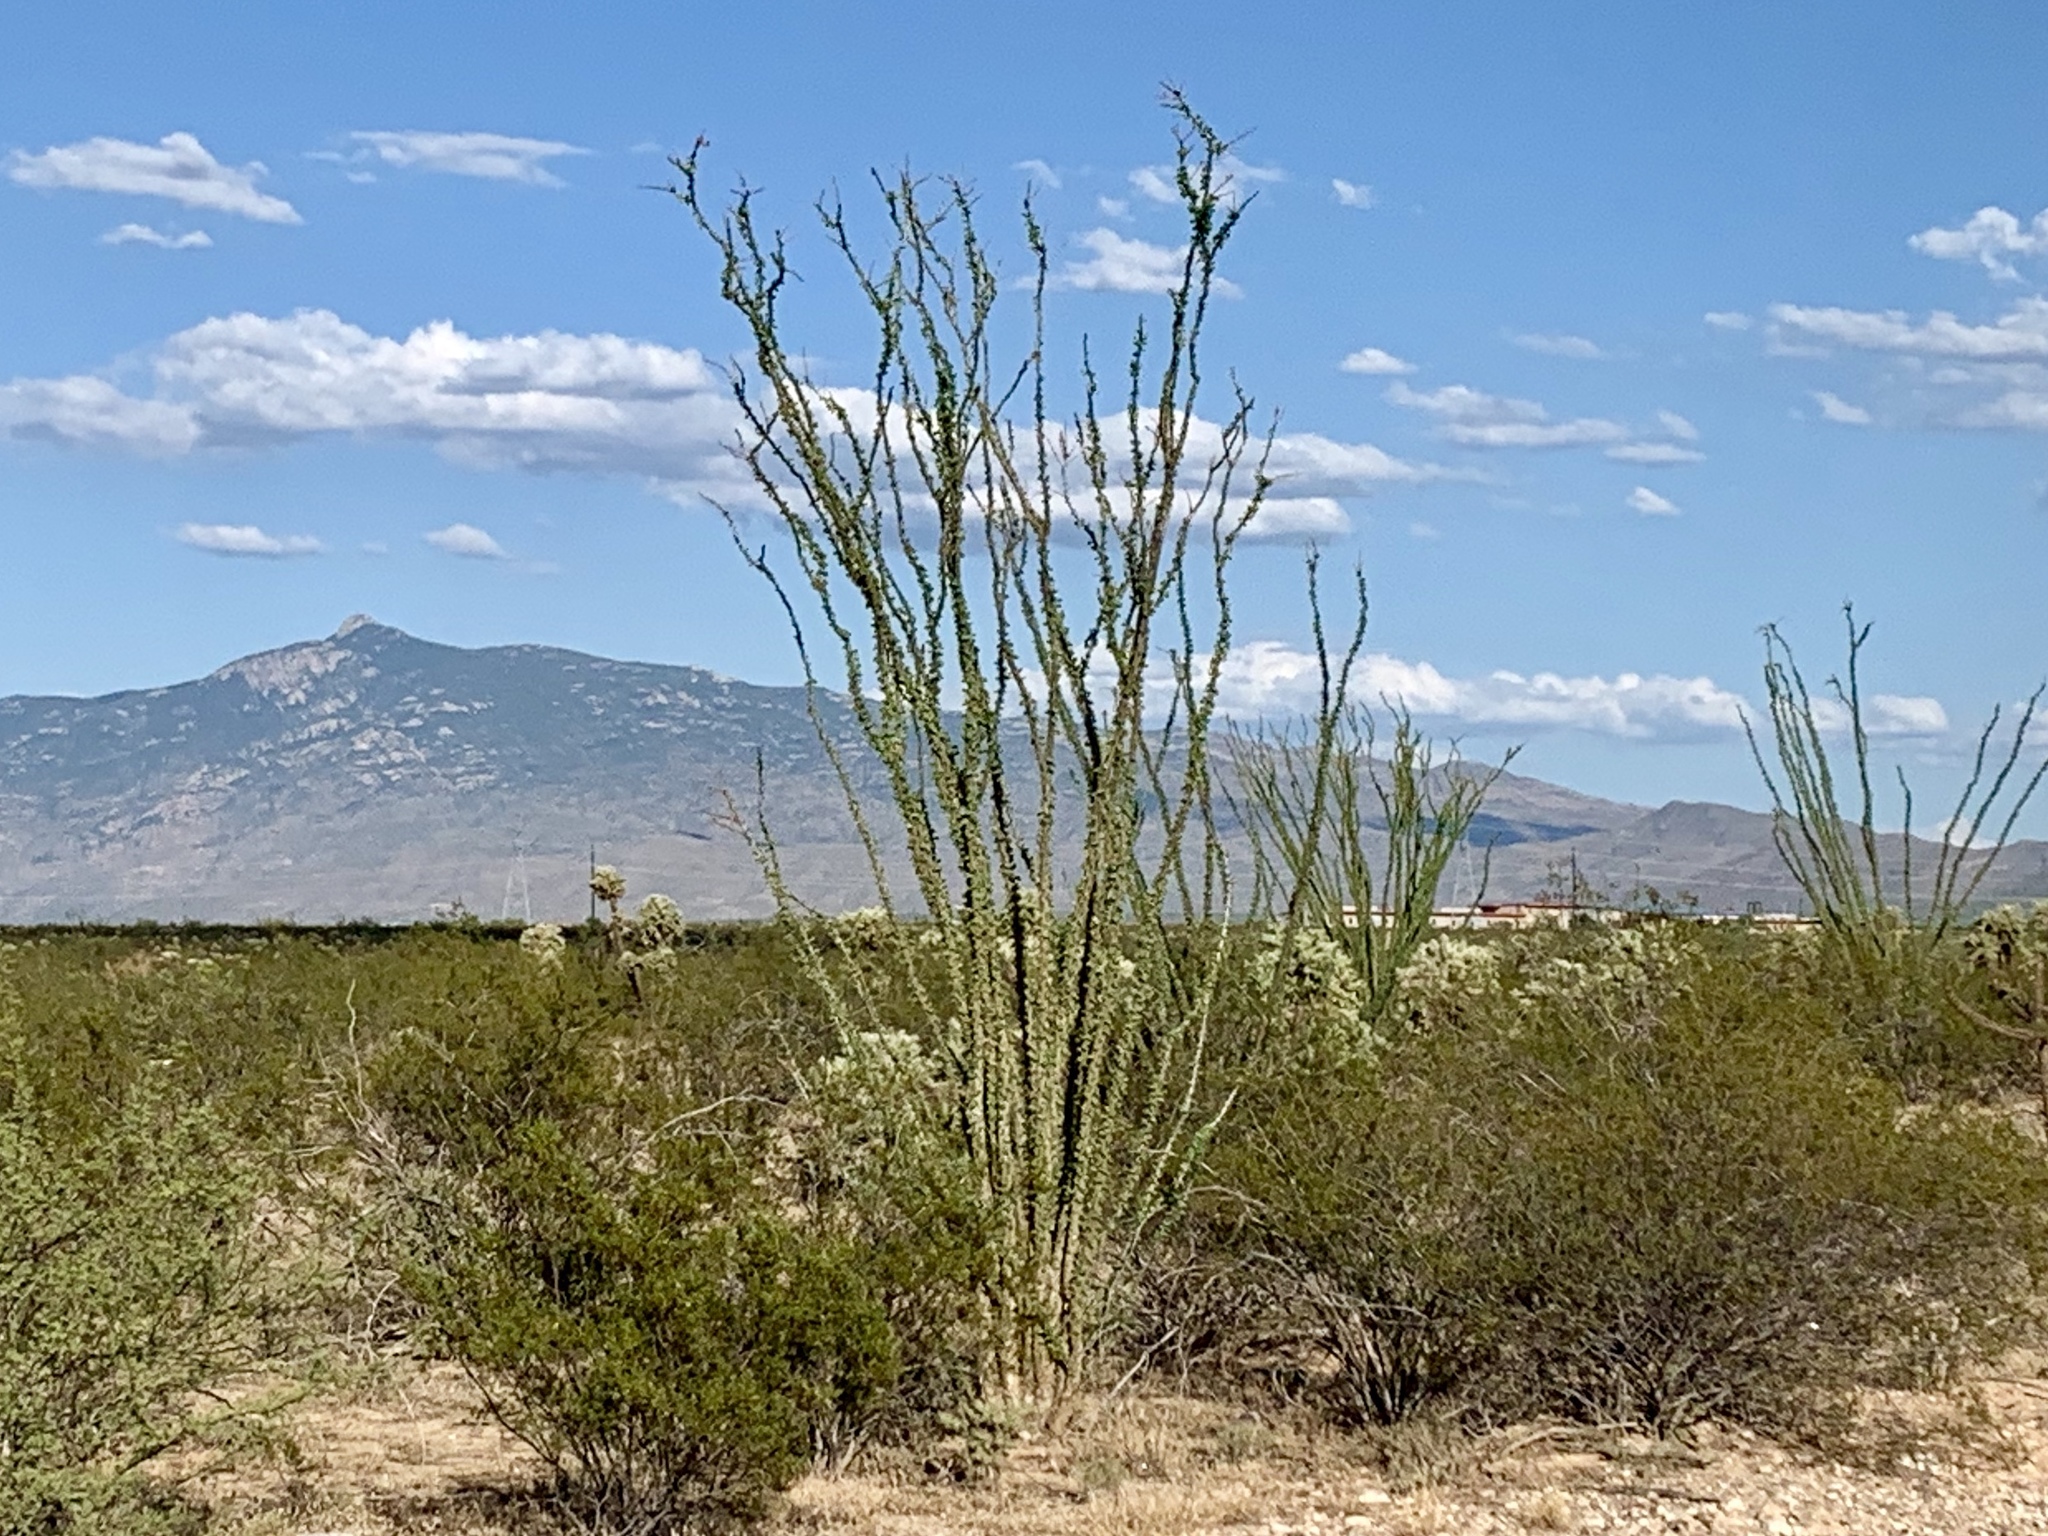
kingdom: Plantae
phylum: Tracheophyta
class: Magnoliopsida
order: Ericales
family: Fouquieriaceae
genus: Fouquieria
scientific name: Fouquieria splendens
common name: Vine-cactus
